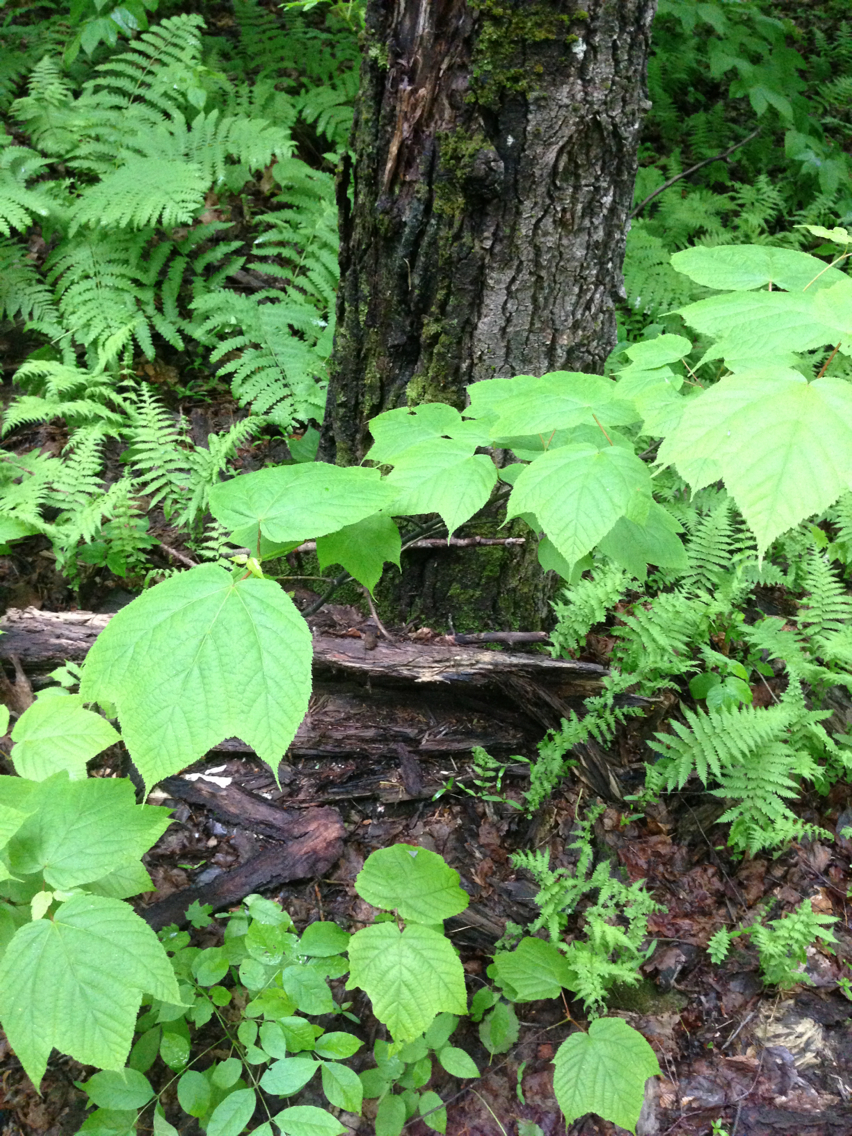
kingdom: Plantae
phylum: Tracheophyta
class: Magnoliopsida
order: Sapindales
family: Sapindaceae
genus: Acer
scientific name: Acer pensylvanicum
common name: Moosewood
